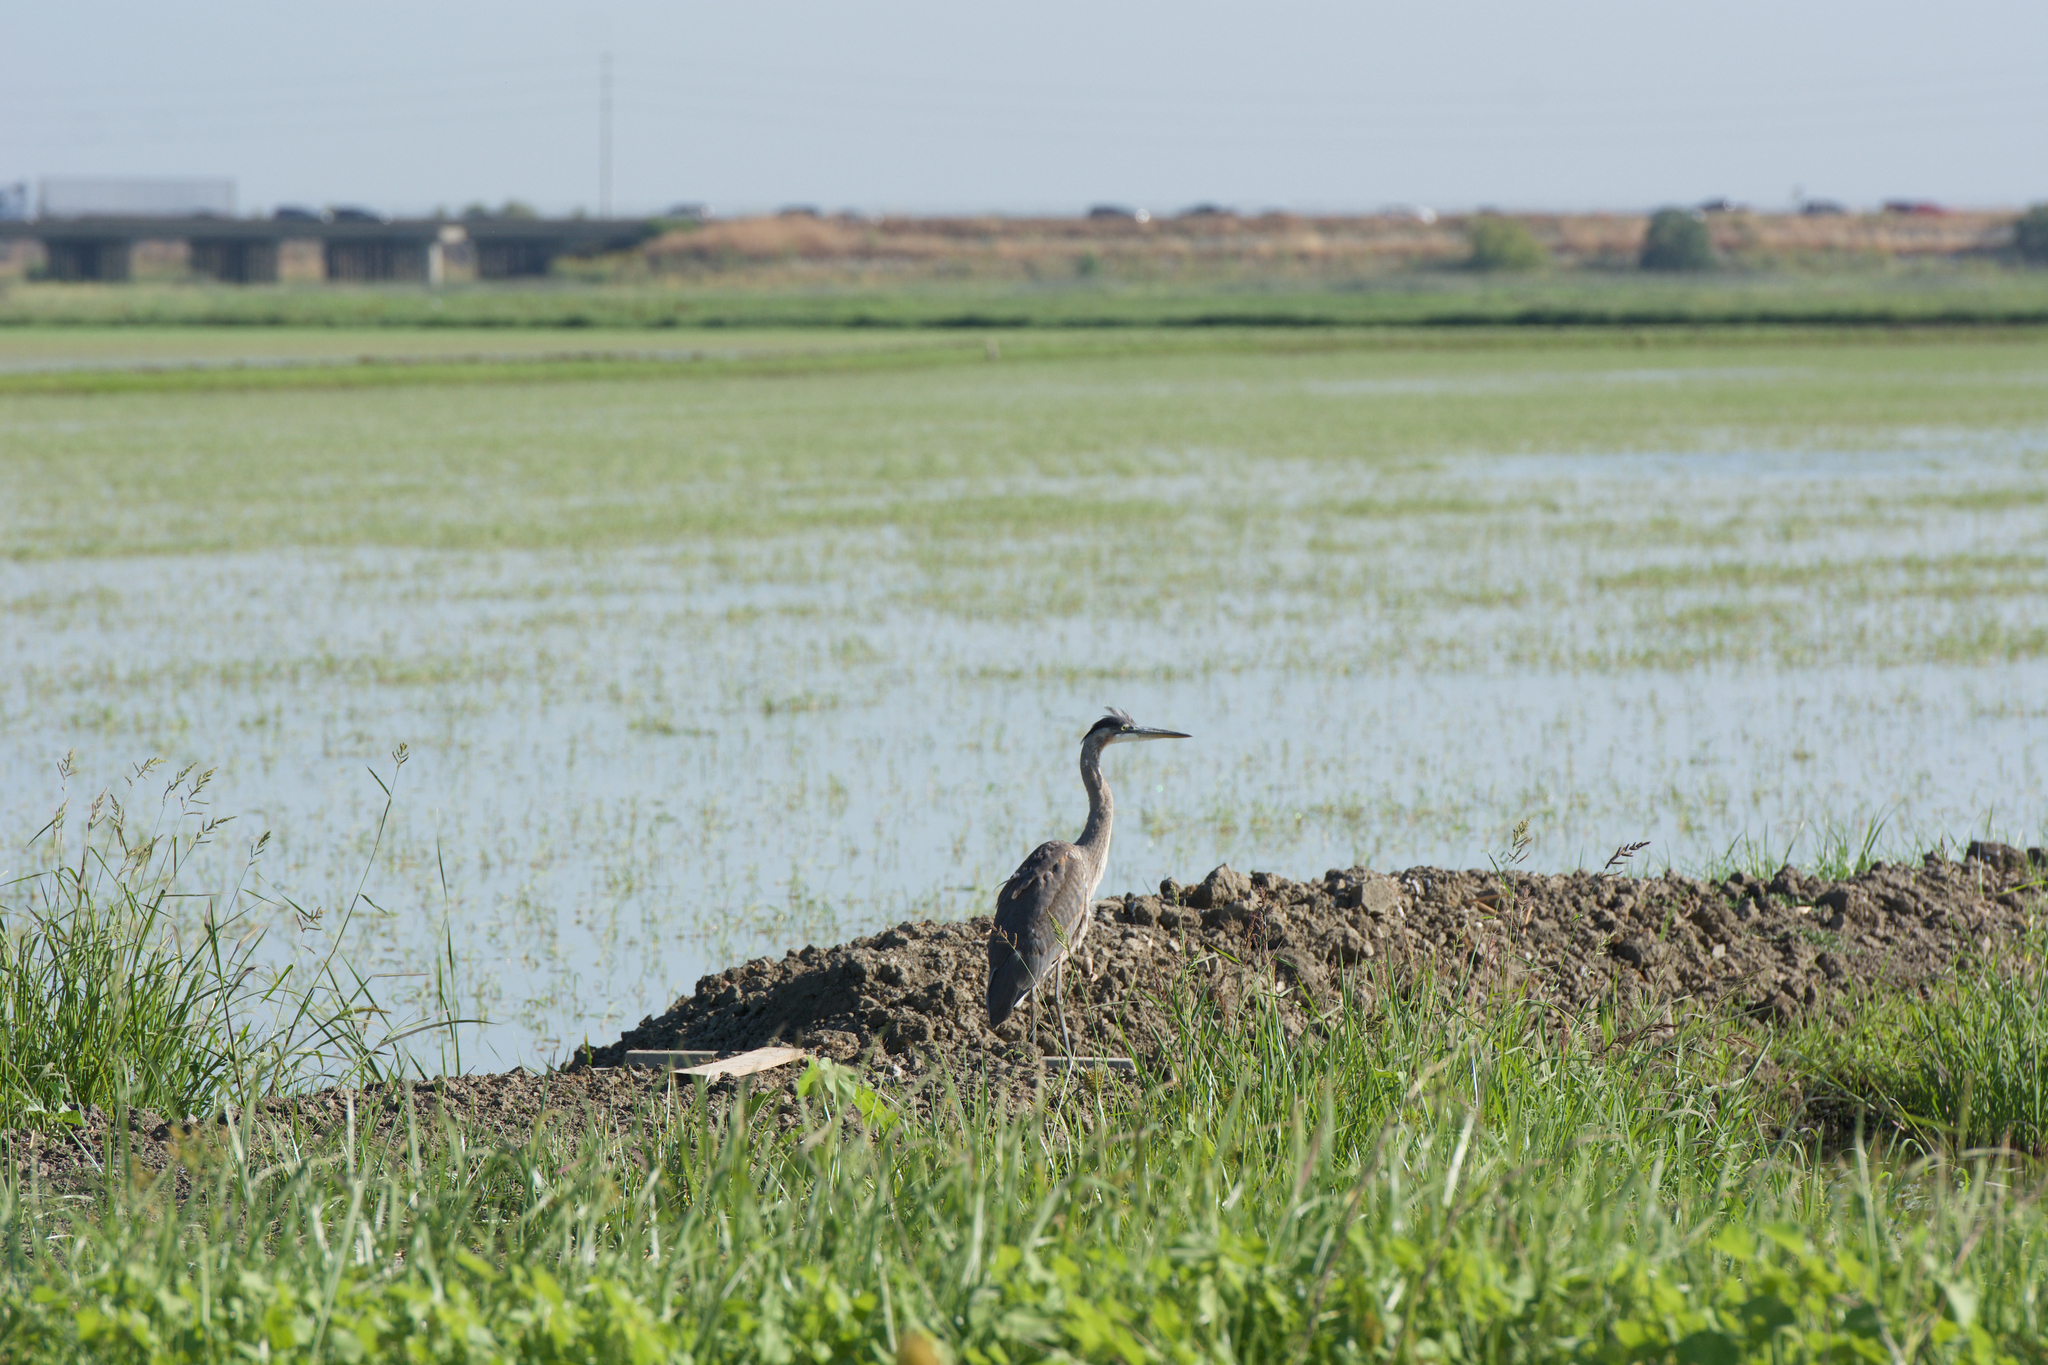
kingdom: Animalia
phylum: Chordata
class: Aves
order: Pelecaniformes
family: Ardeidae
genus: Ardea
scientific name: Ardea herodias
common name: Great blue heron
